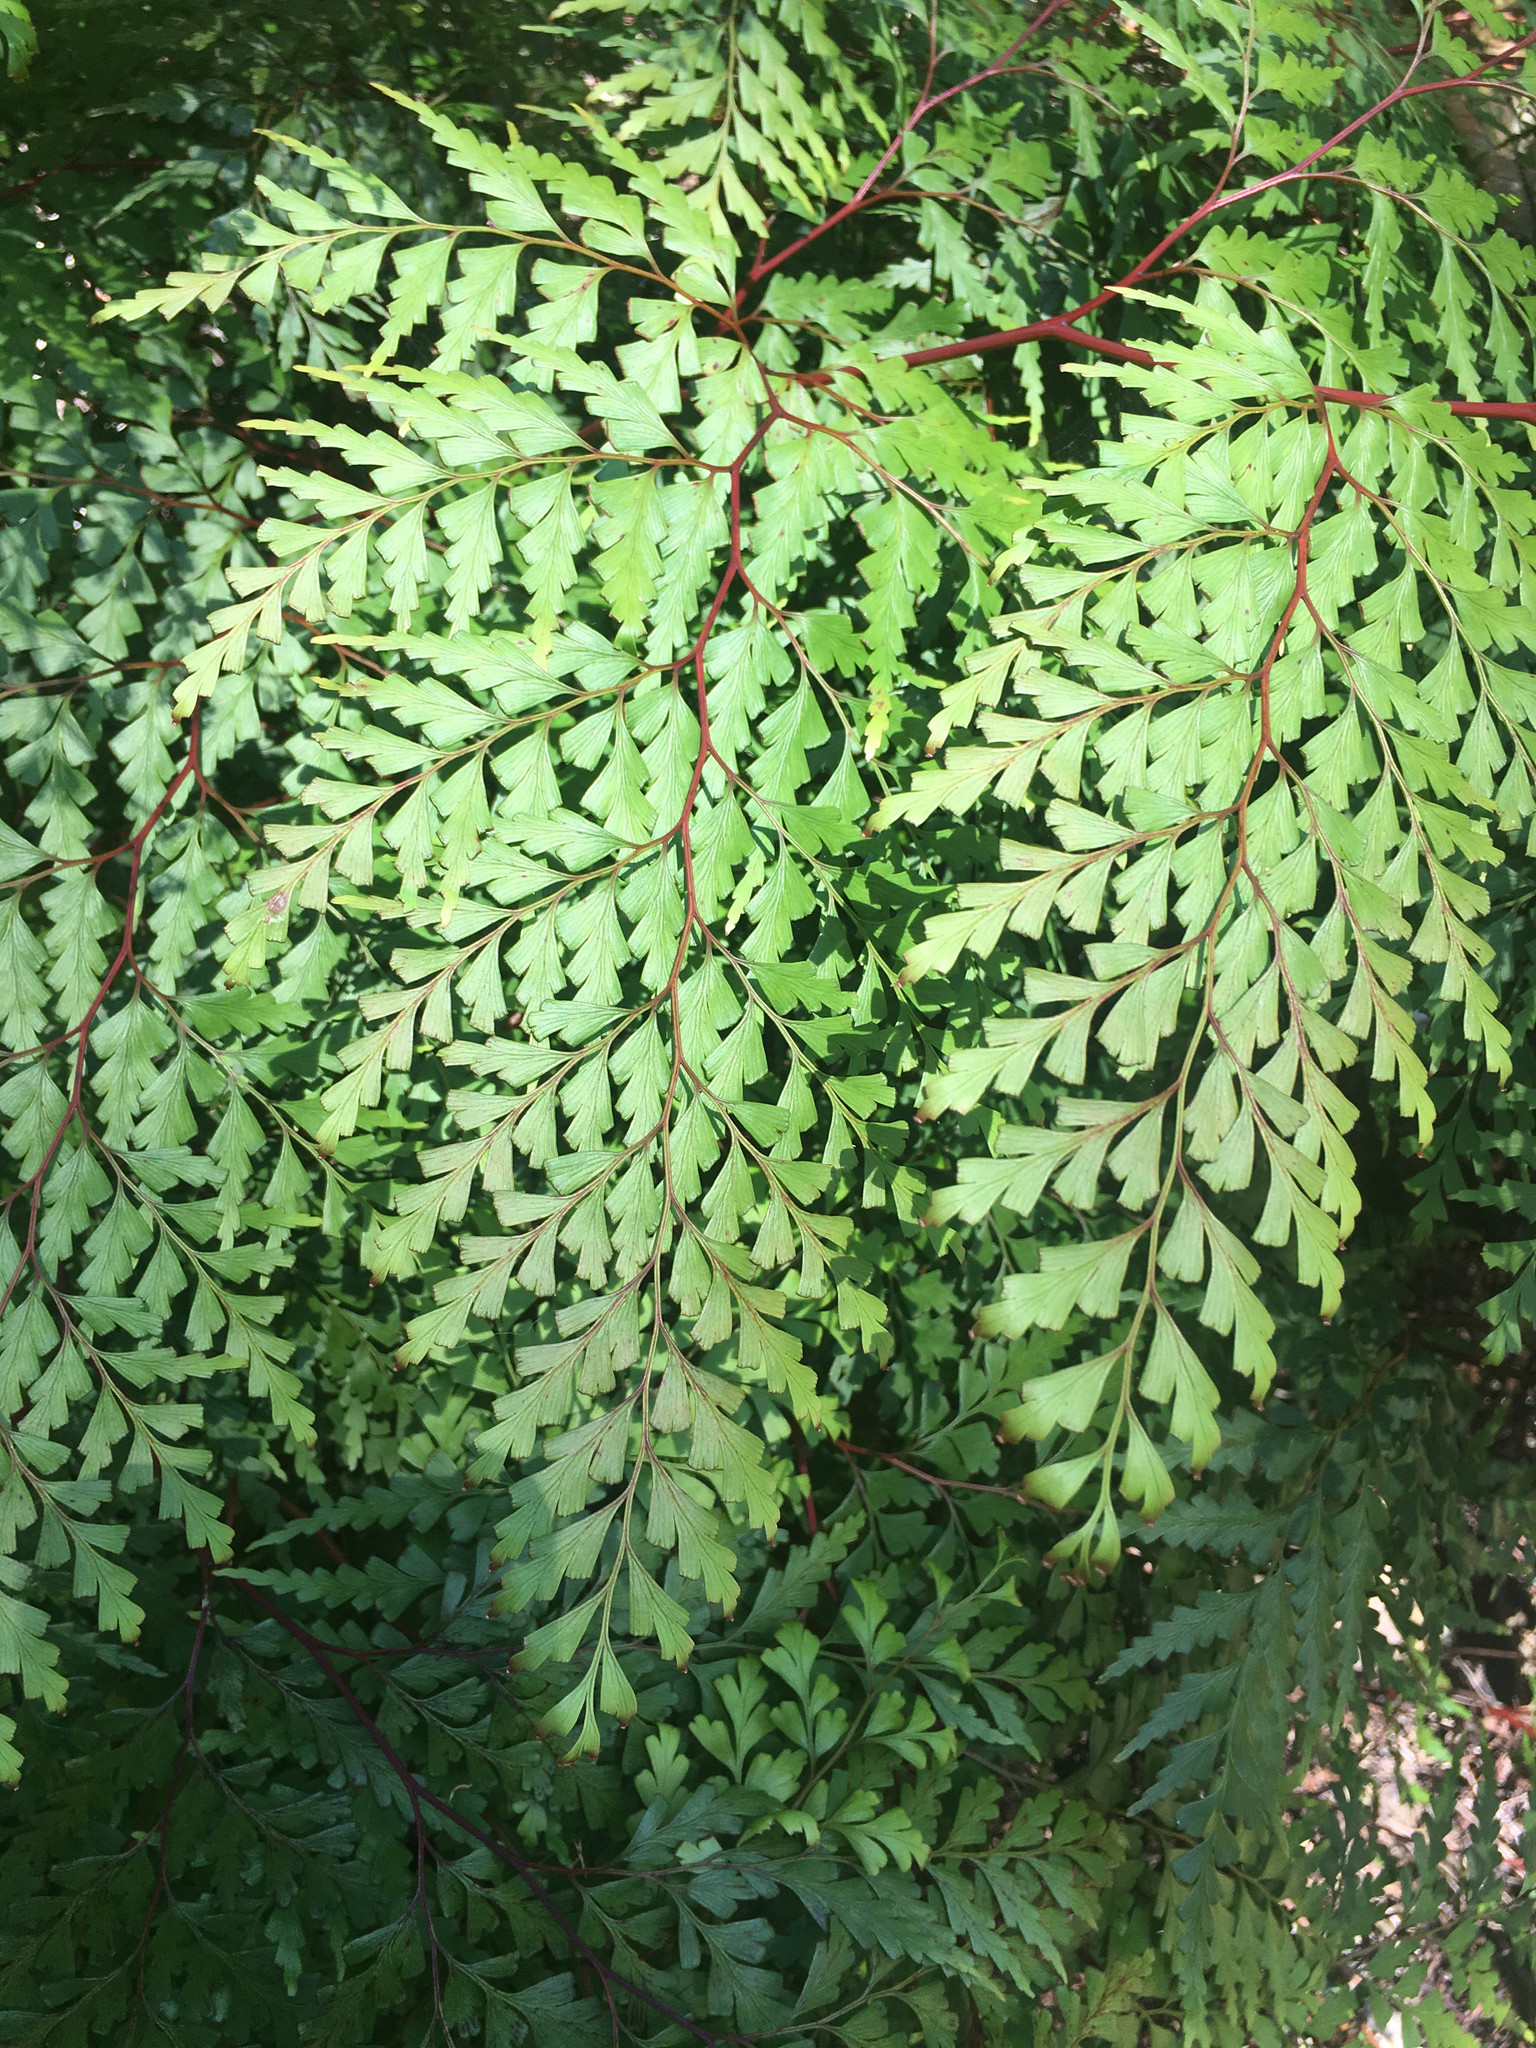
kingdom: Plantae
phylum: Tracheophyta
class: Polypodiopsida
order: Polypodiales
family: Lindsaeaceae
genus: Odontosoria
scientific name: Odontosoria deltoidea
